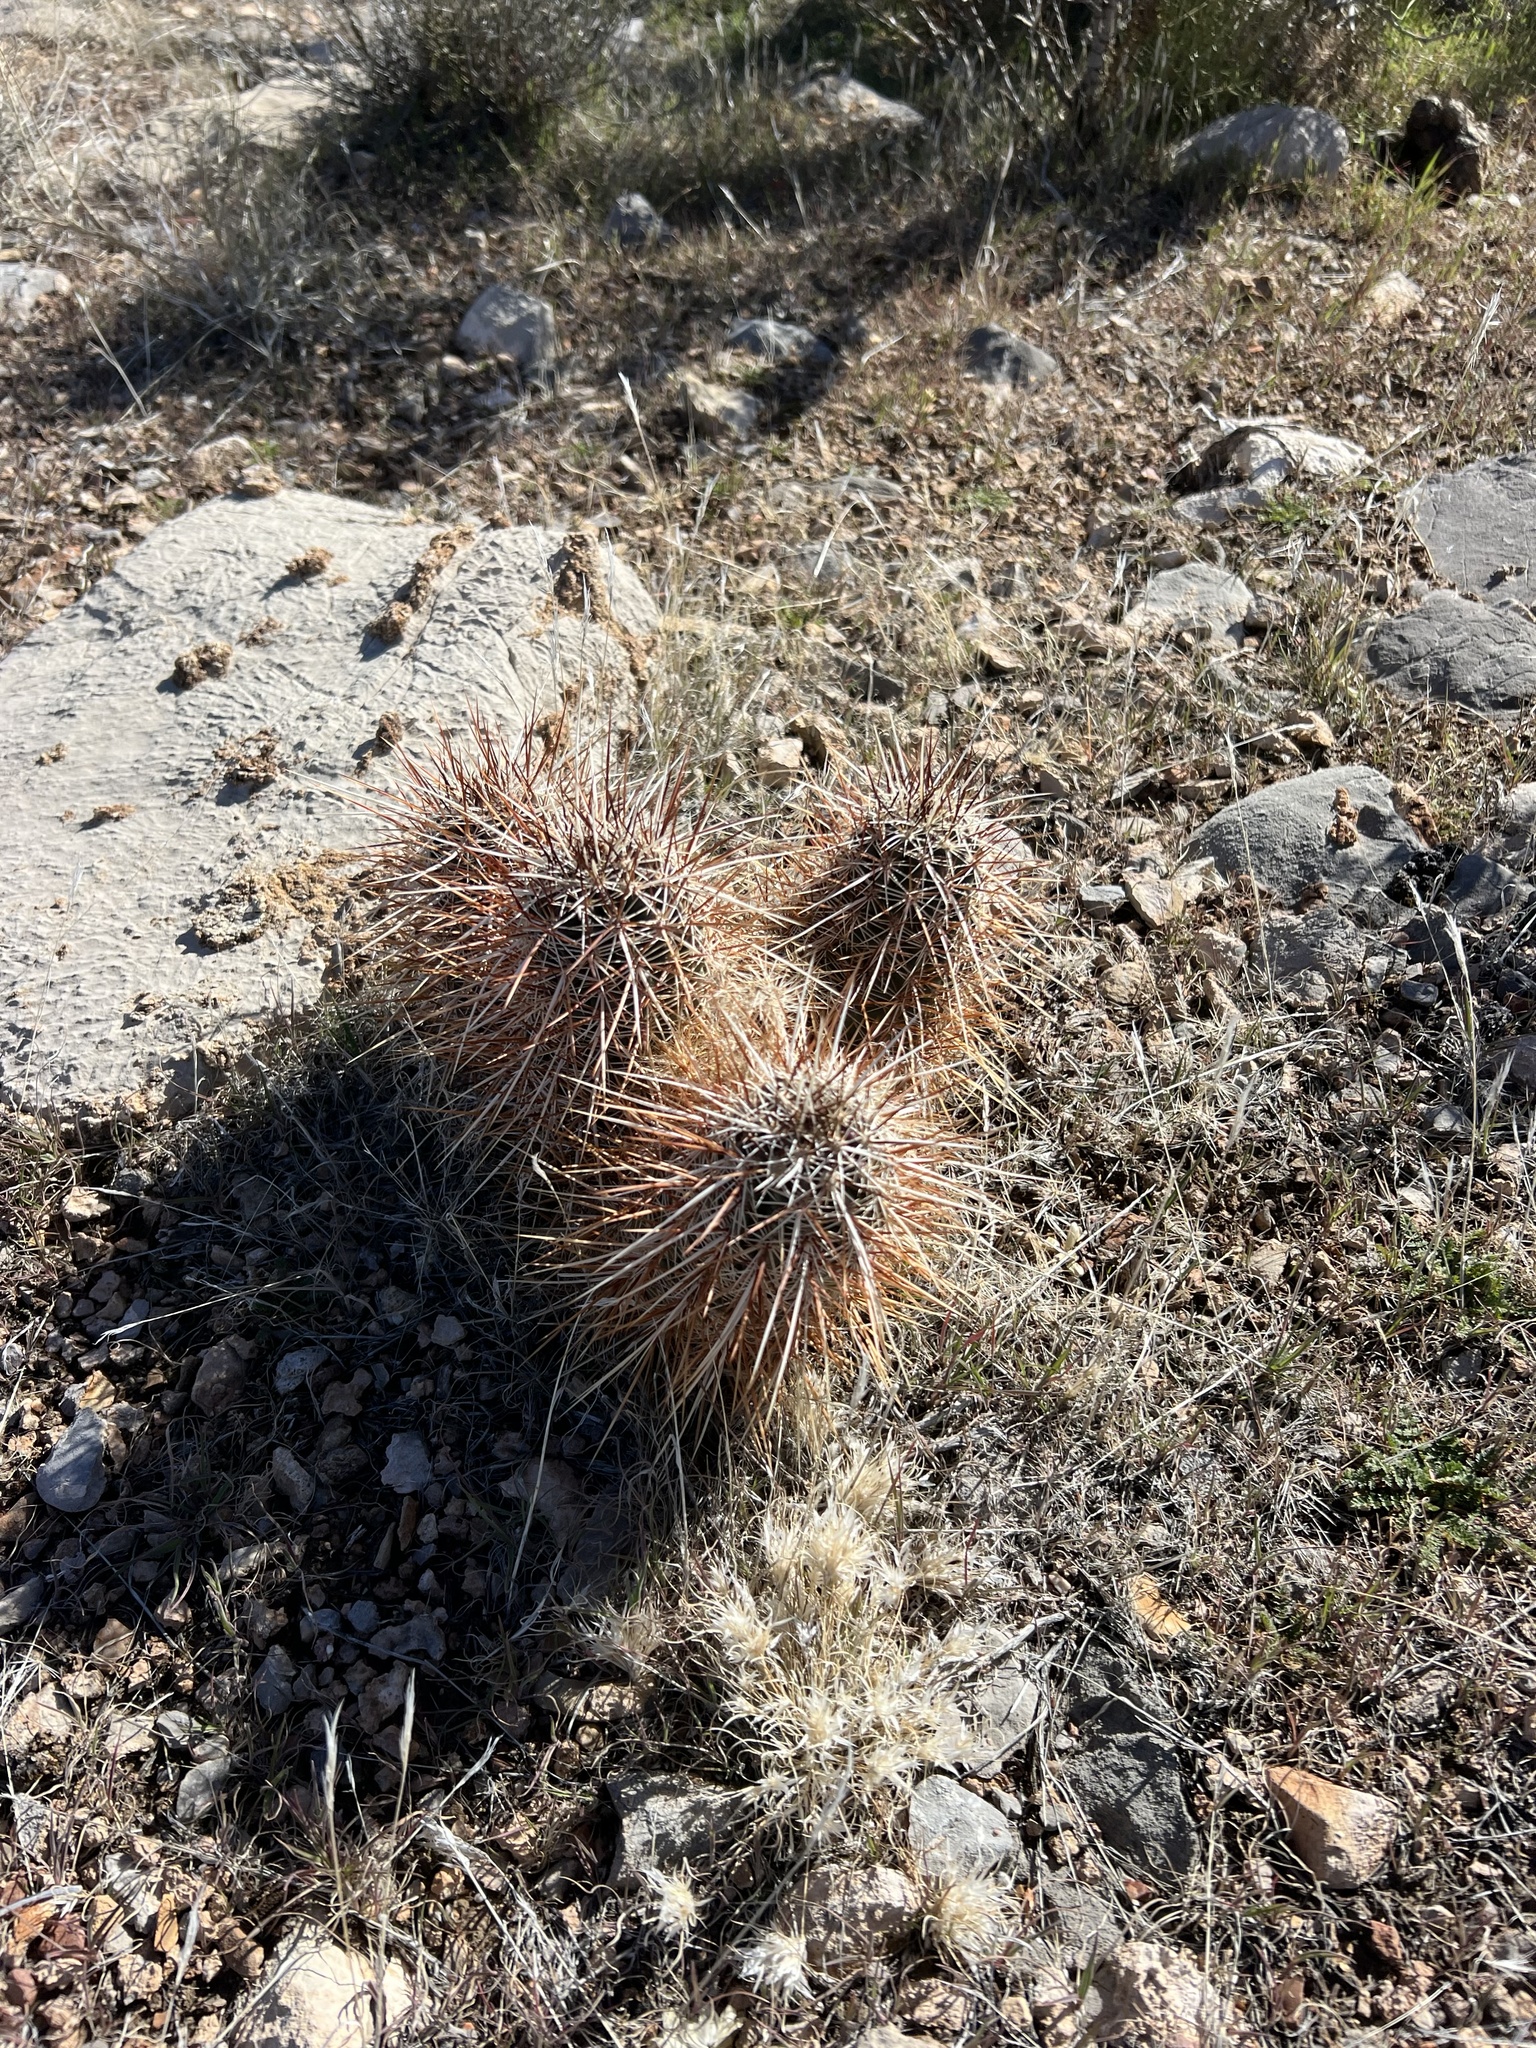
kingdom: Plantae
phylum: Tracheophyta
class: Magnoliopsida
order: Caryophyllales
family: Cactaceae
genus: Echinocereus
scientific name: Echinocereus engelmannii
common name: Engelmann's hedgehog cactus
